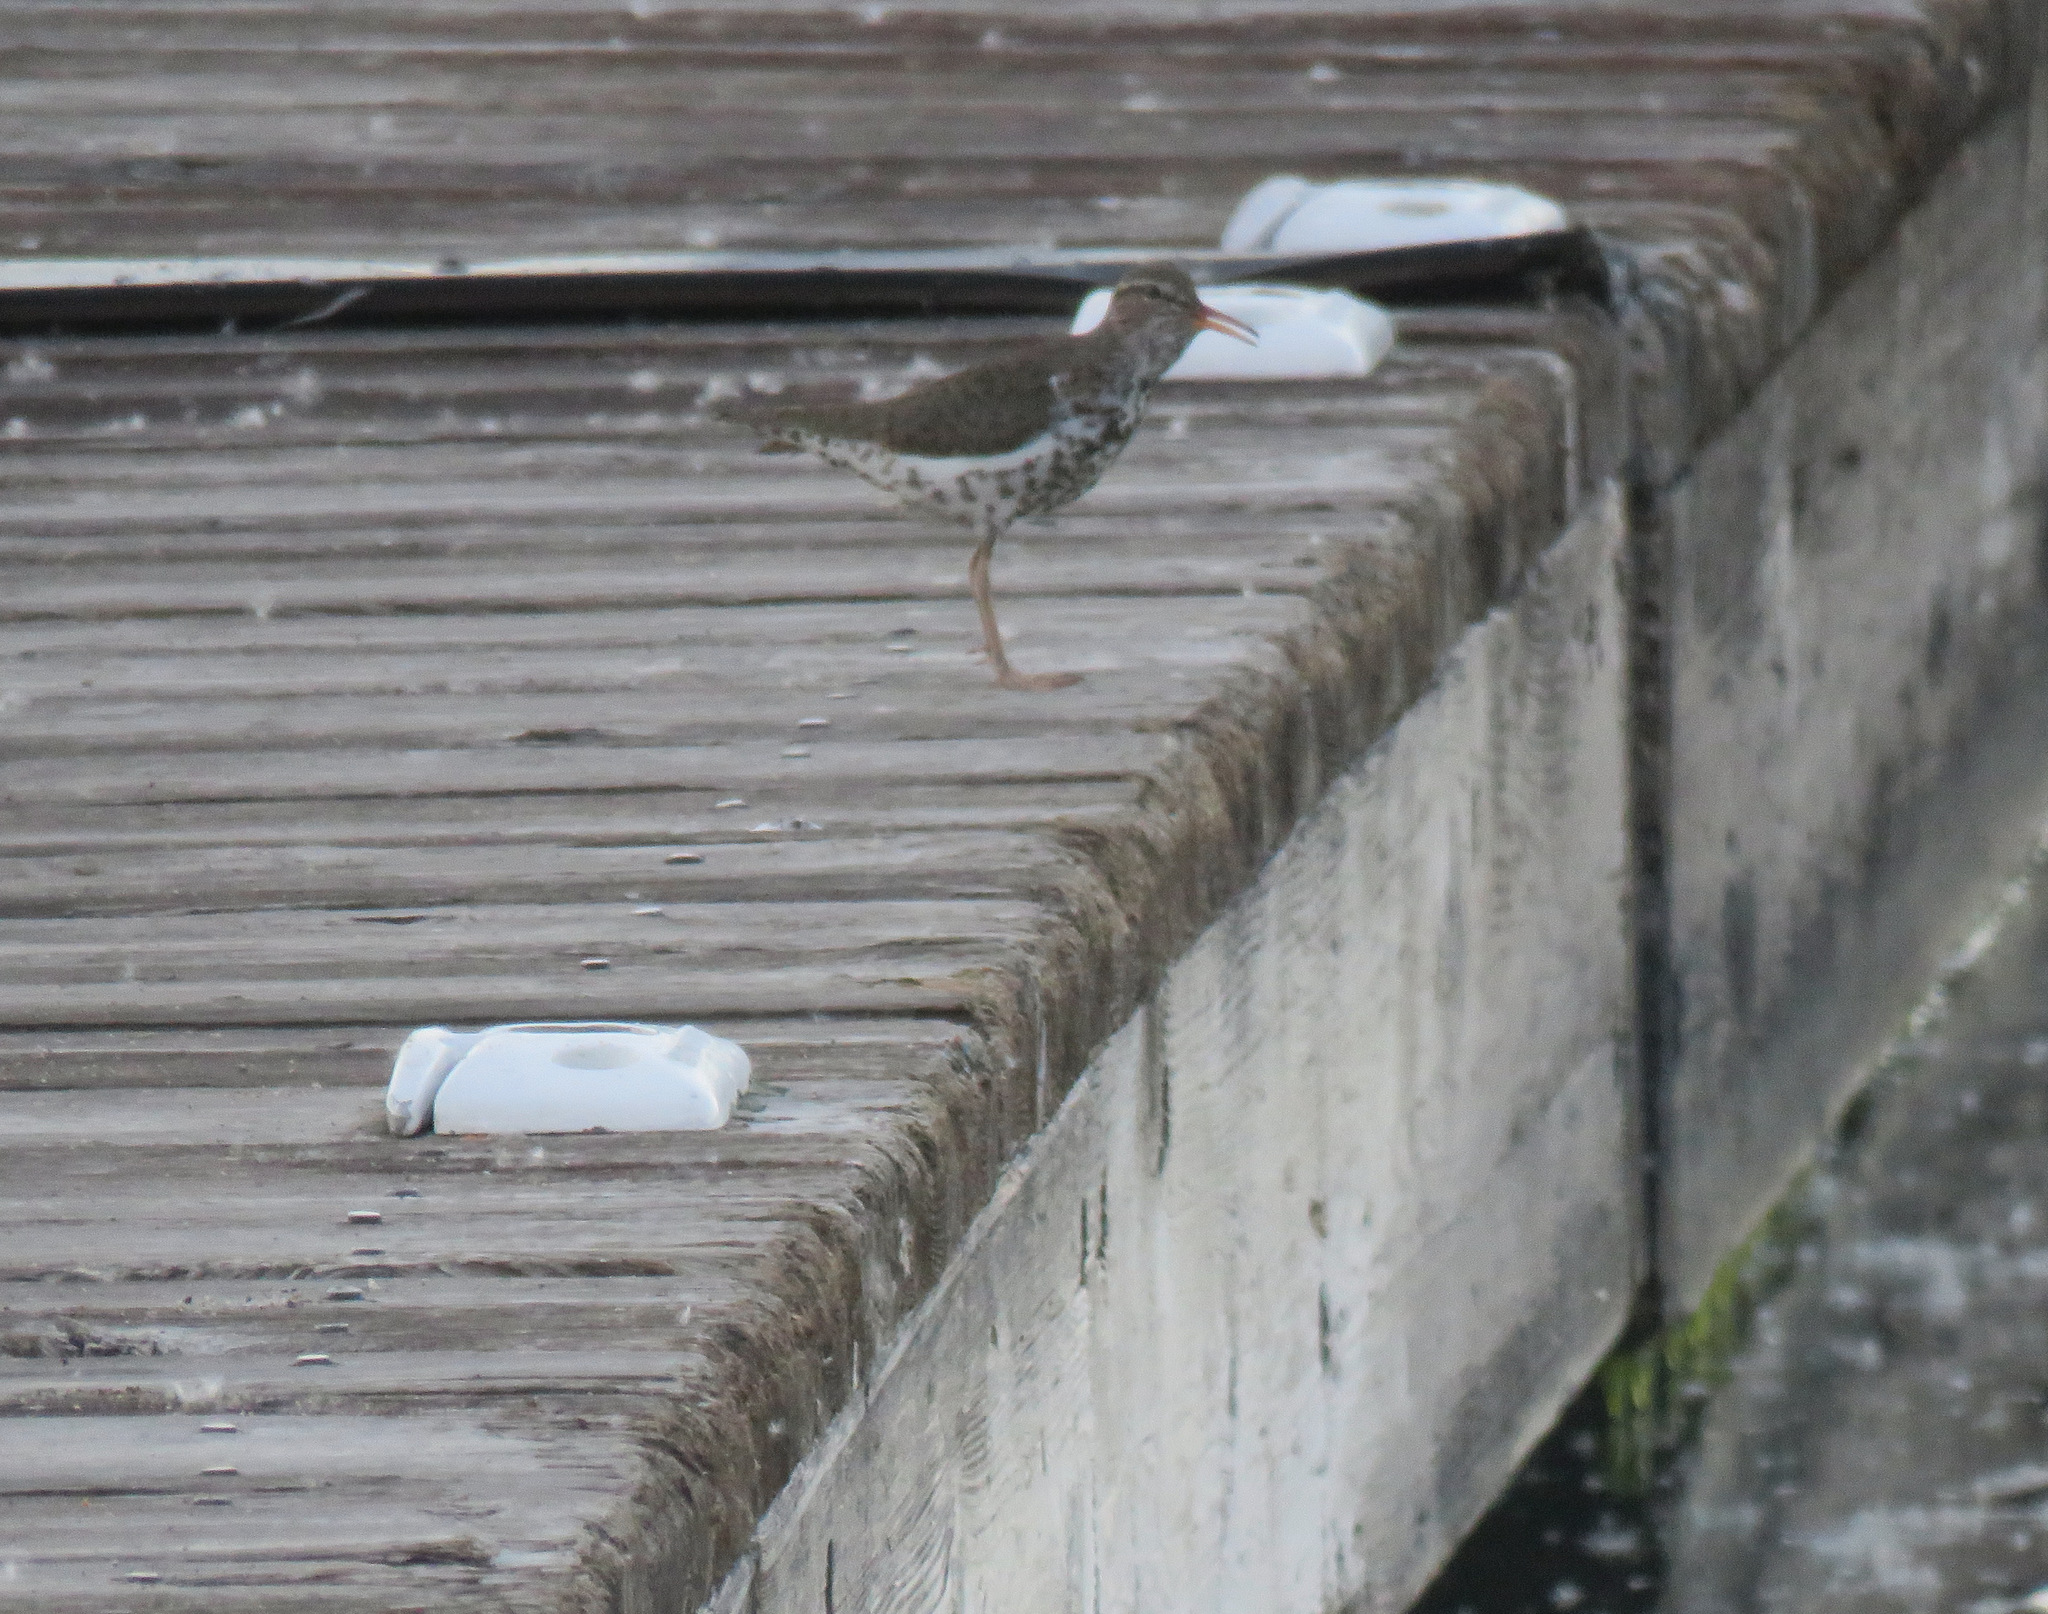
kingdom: Animalia
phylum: Chordata
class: Aves
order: Charadriiformes
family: Scolopacidae
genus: Actitis
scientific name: Actitis macularius
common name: Spotted sandpiper
